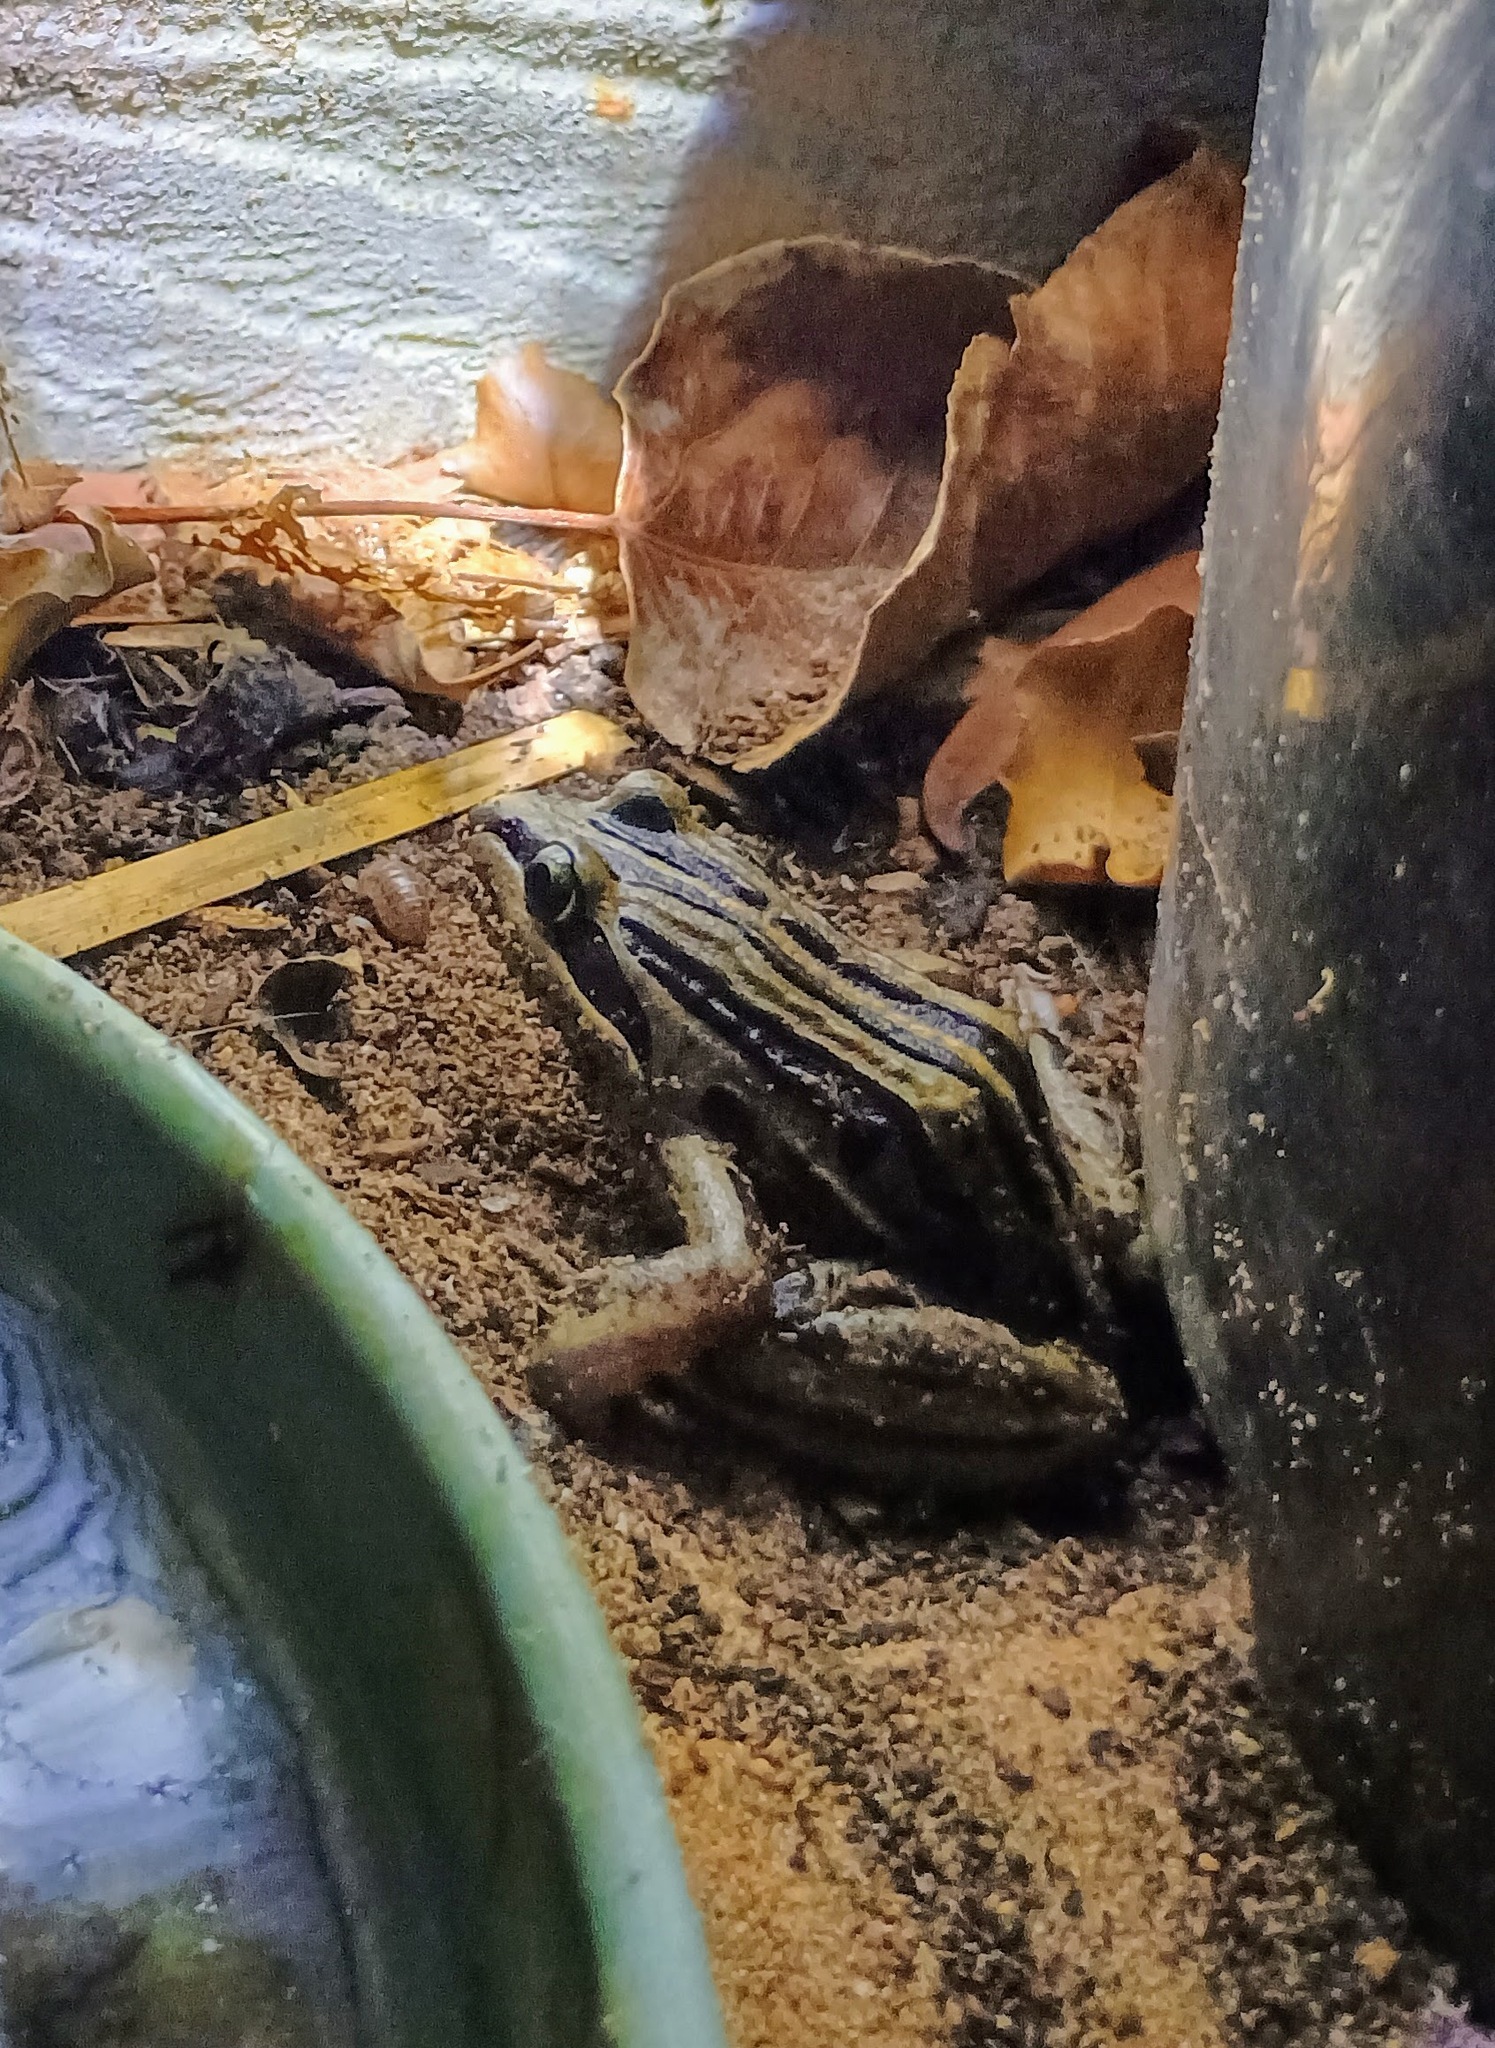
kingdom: Animalia
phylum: Chordata
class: Amphibia
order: Anura
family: Limnodynastidae
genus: Limnodynastes
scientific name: Limnodynastes peronii
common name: Brown frog
